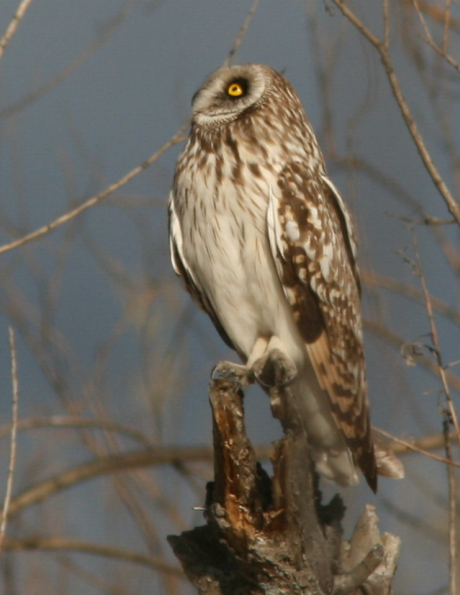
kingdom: Animalia
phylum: Chordata
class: Aves
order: Strigiformes
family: Strigidae
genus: Asio
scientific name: Asio flammeus
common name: Short-eared owl
